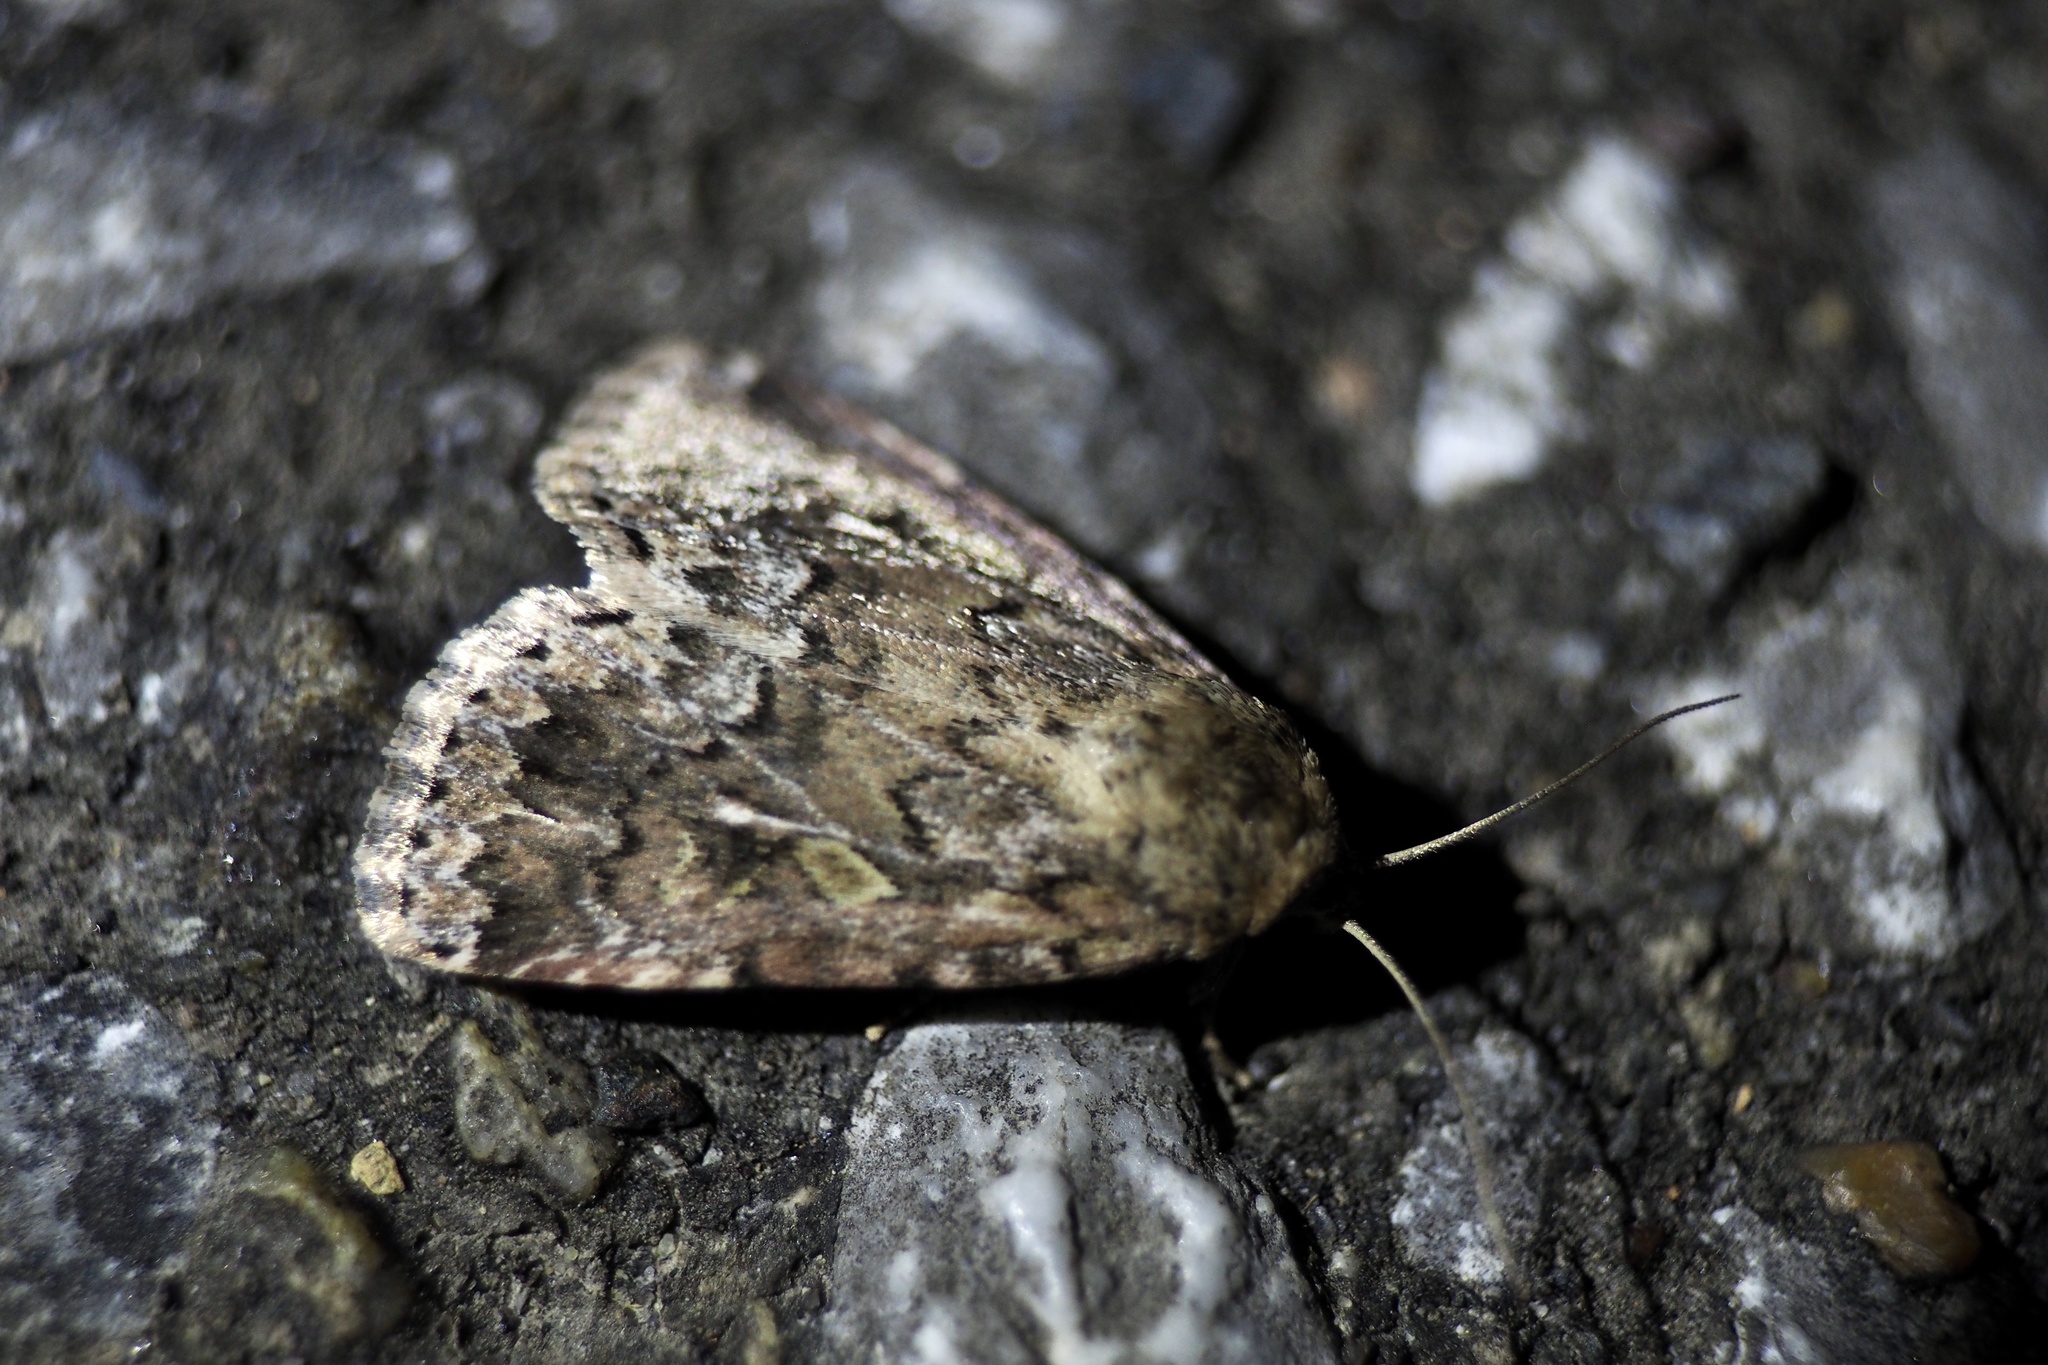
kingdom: Animalia
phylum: Arthropoda
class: Insecta
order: Lepidoptera
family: Noctuidae
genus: Spodoptera
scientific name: Spodoptera depravata
